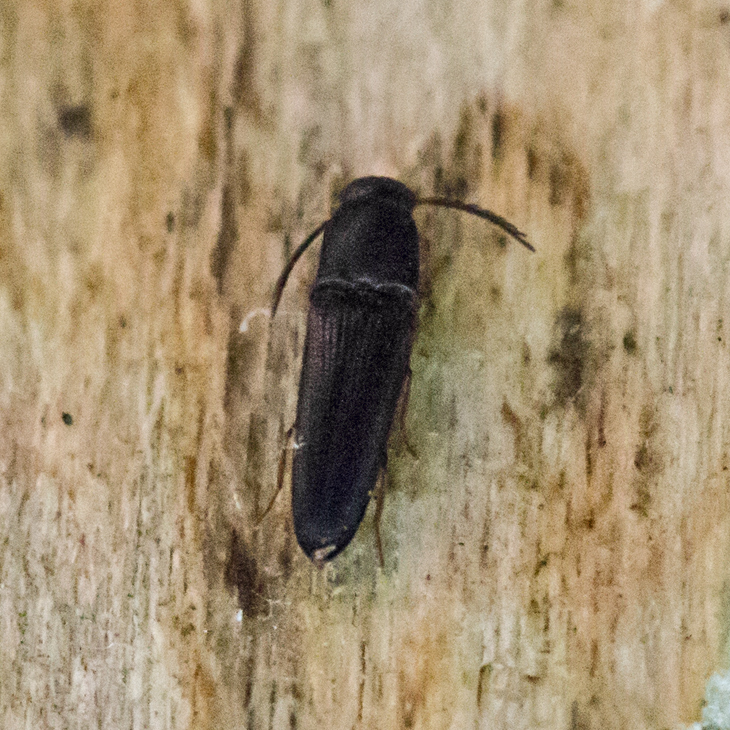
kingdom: Animalia
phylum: Arthropoda
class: Insecta
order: Coleoptera
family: Eucnemidae
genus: Deltometopus
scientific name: Deltometopus amoenicornis
